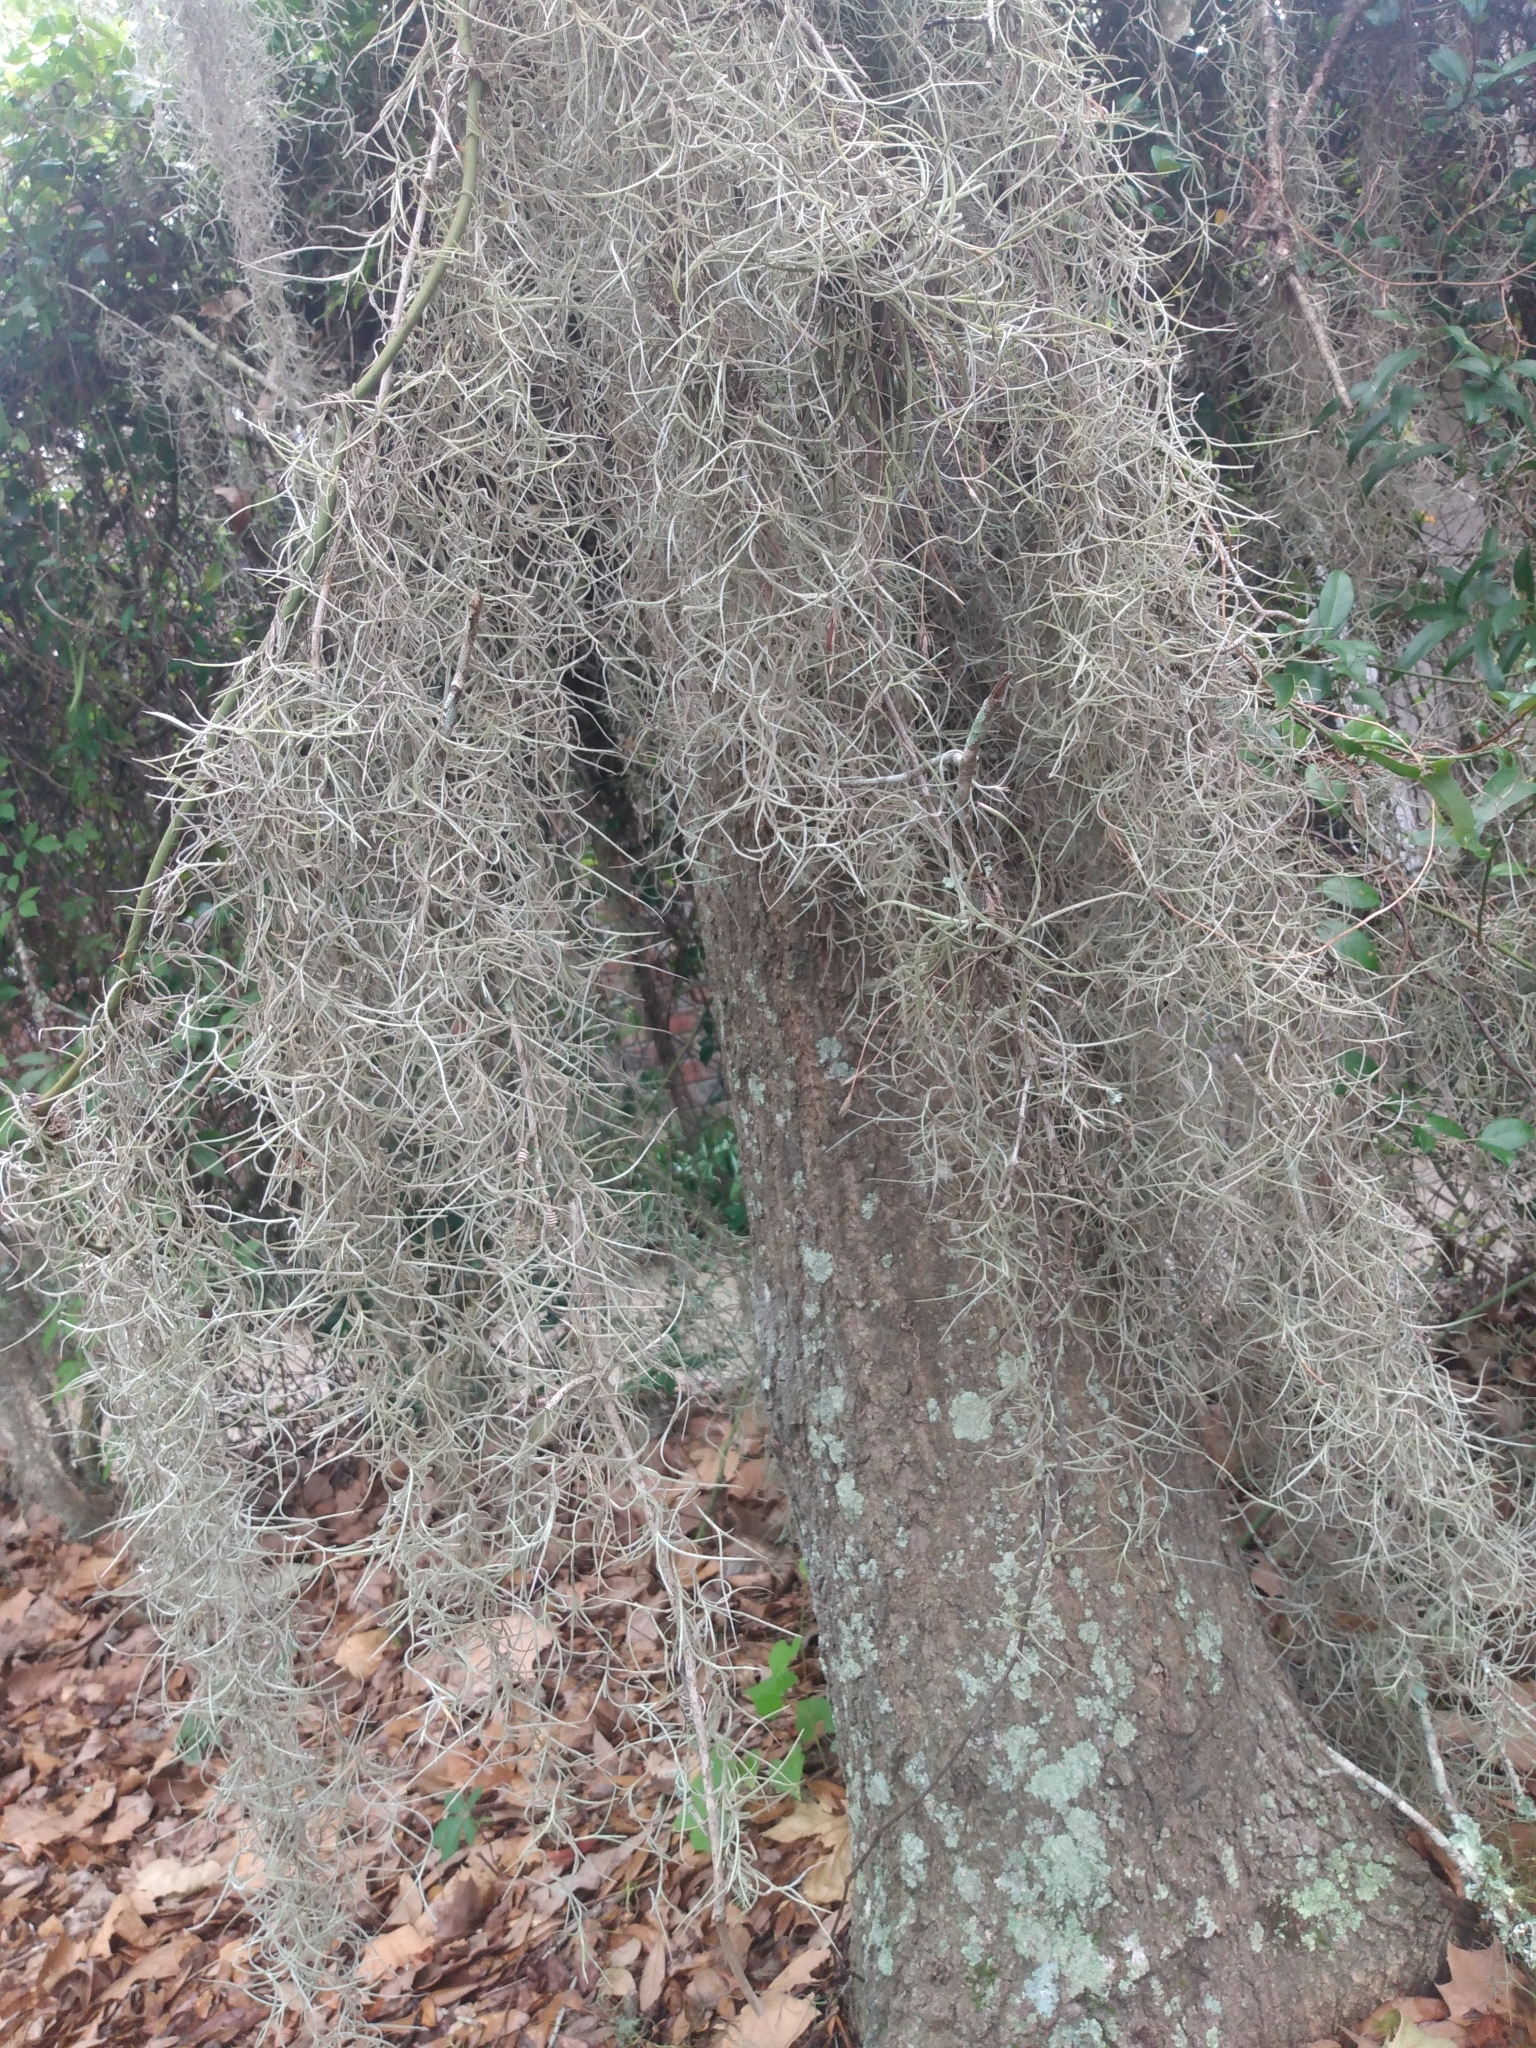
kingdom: Plantae
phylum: Tracheophyta
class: Liliopsida
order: Poales
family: Bromeliaceae
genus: Tillandsia
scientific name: Tillandsia usneoides
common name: Spanish moss
